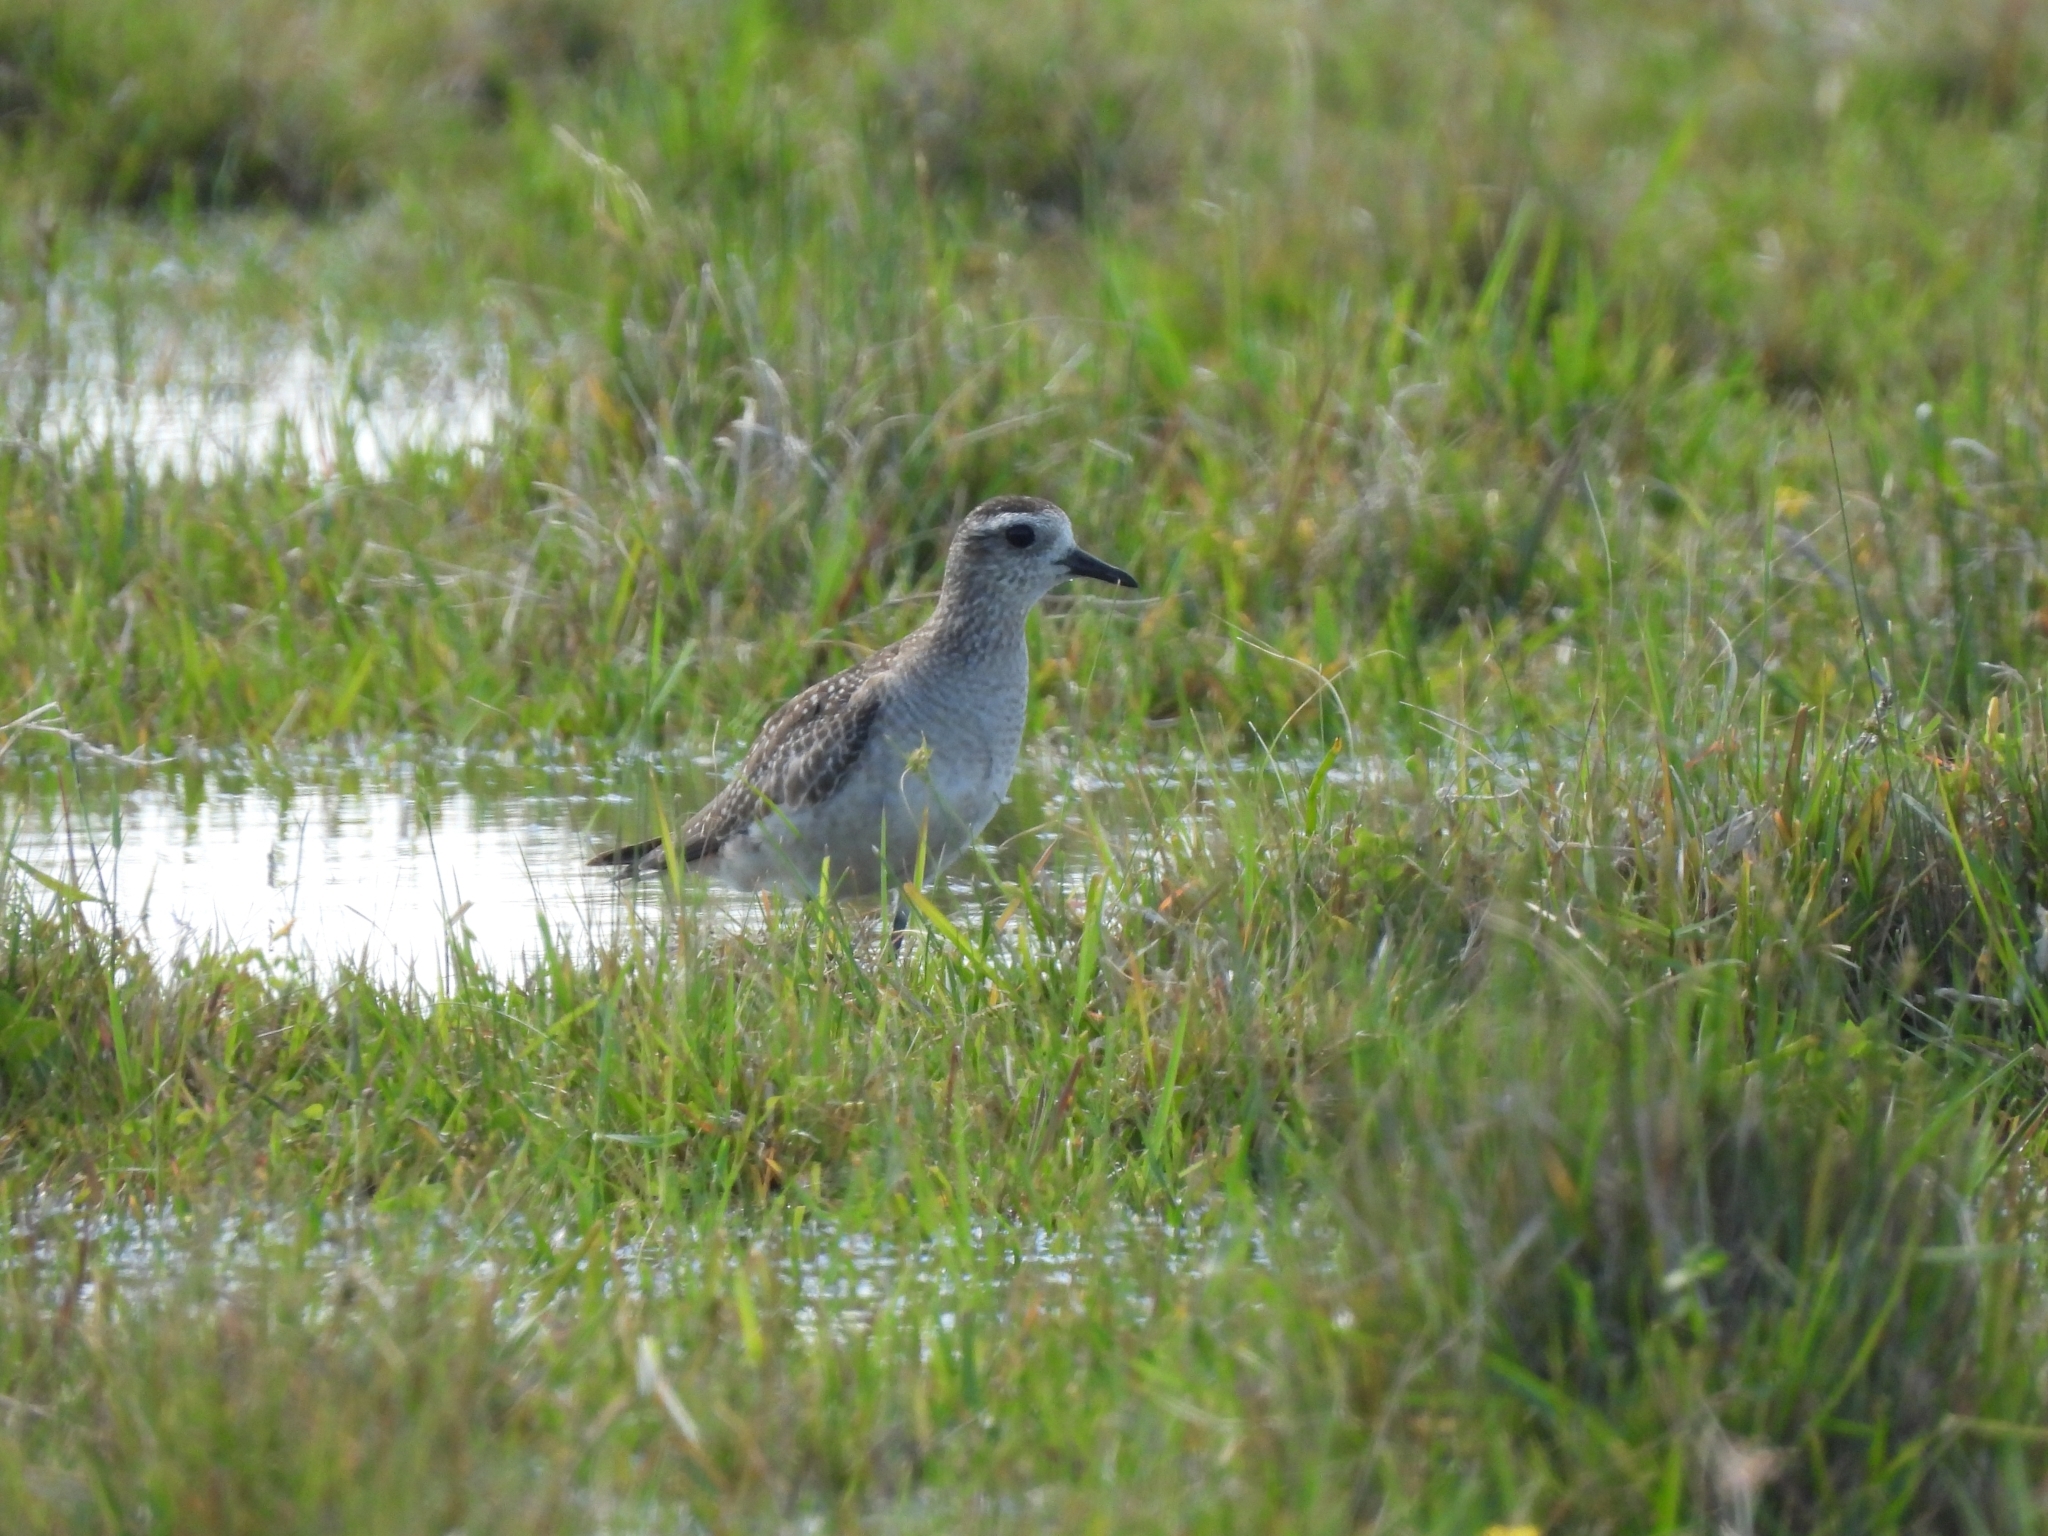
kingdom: Animalia
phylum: Chordata
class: Aves
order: Charadriiformes
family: Charadriidae
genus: Pluvialis
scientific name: Pluvialis dominica
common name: American golden plover
